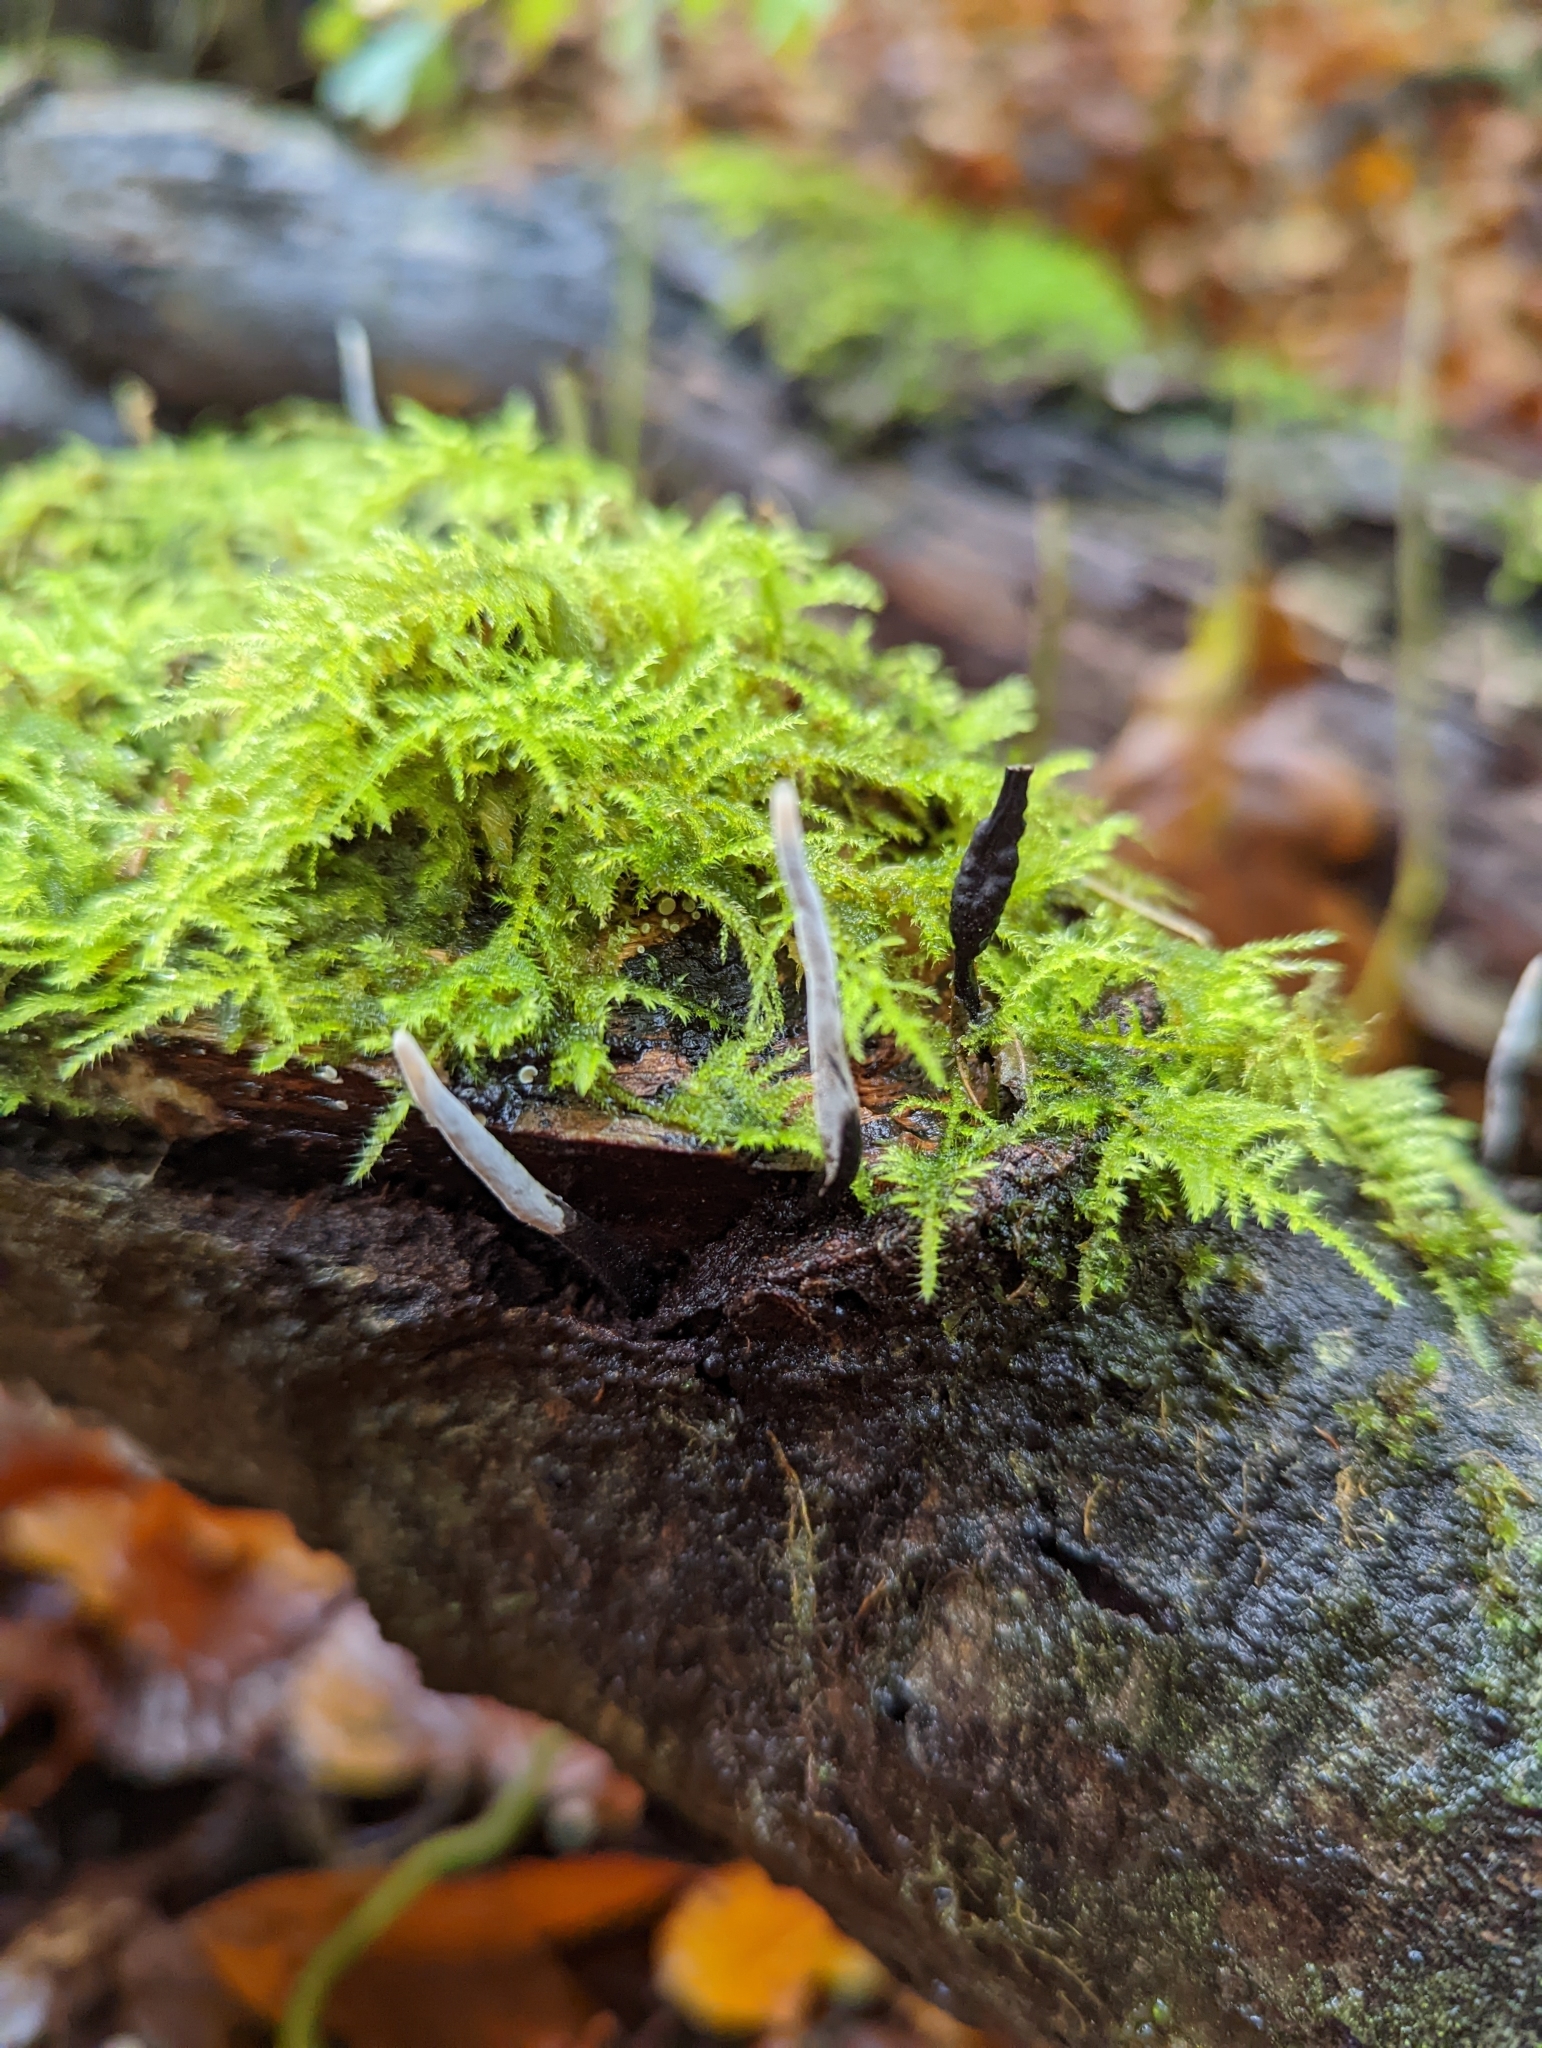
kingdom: Fungi
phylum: Ascomycota
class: Sordariomycetes
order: Xylariales
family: Xylariaceae
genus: Xylaria
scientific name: Xylaria hypoxylon
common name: Candle-snuff fungus
